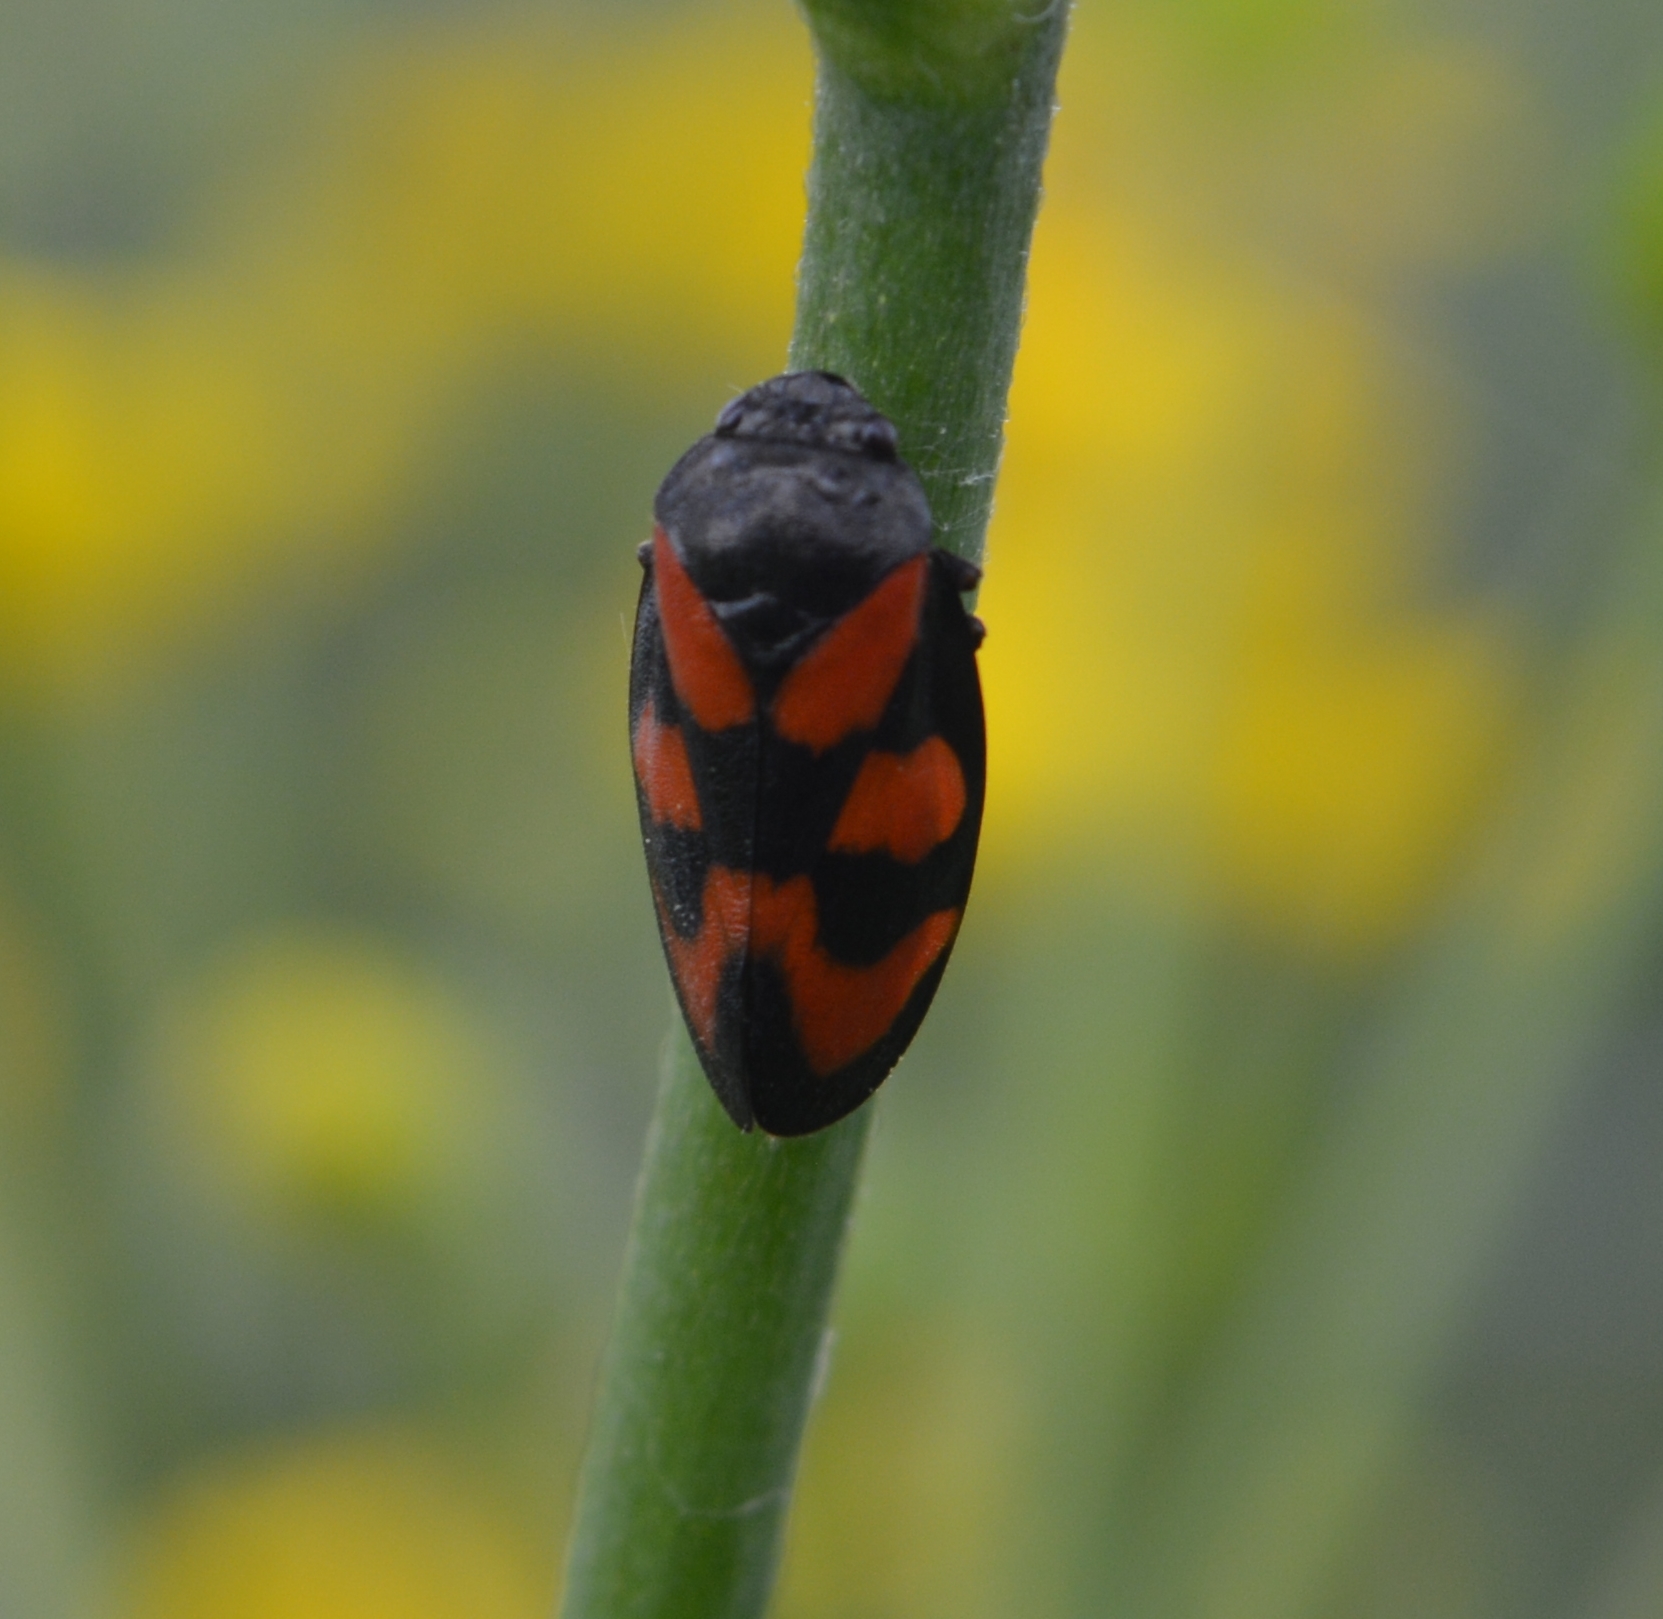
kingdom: Animalia
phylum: Arthropoda
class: Insecta
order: Hemiptera
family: Cercopidae
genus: Cercopis
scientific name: Cercopis vulnerata
